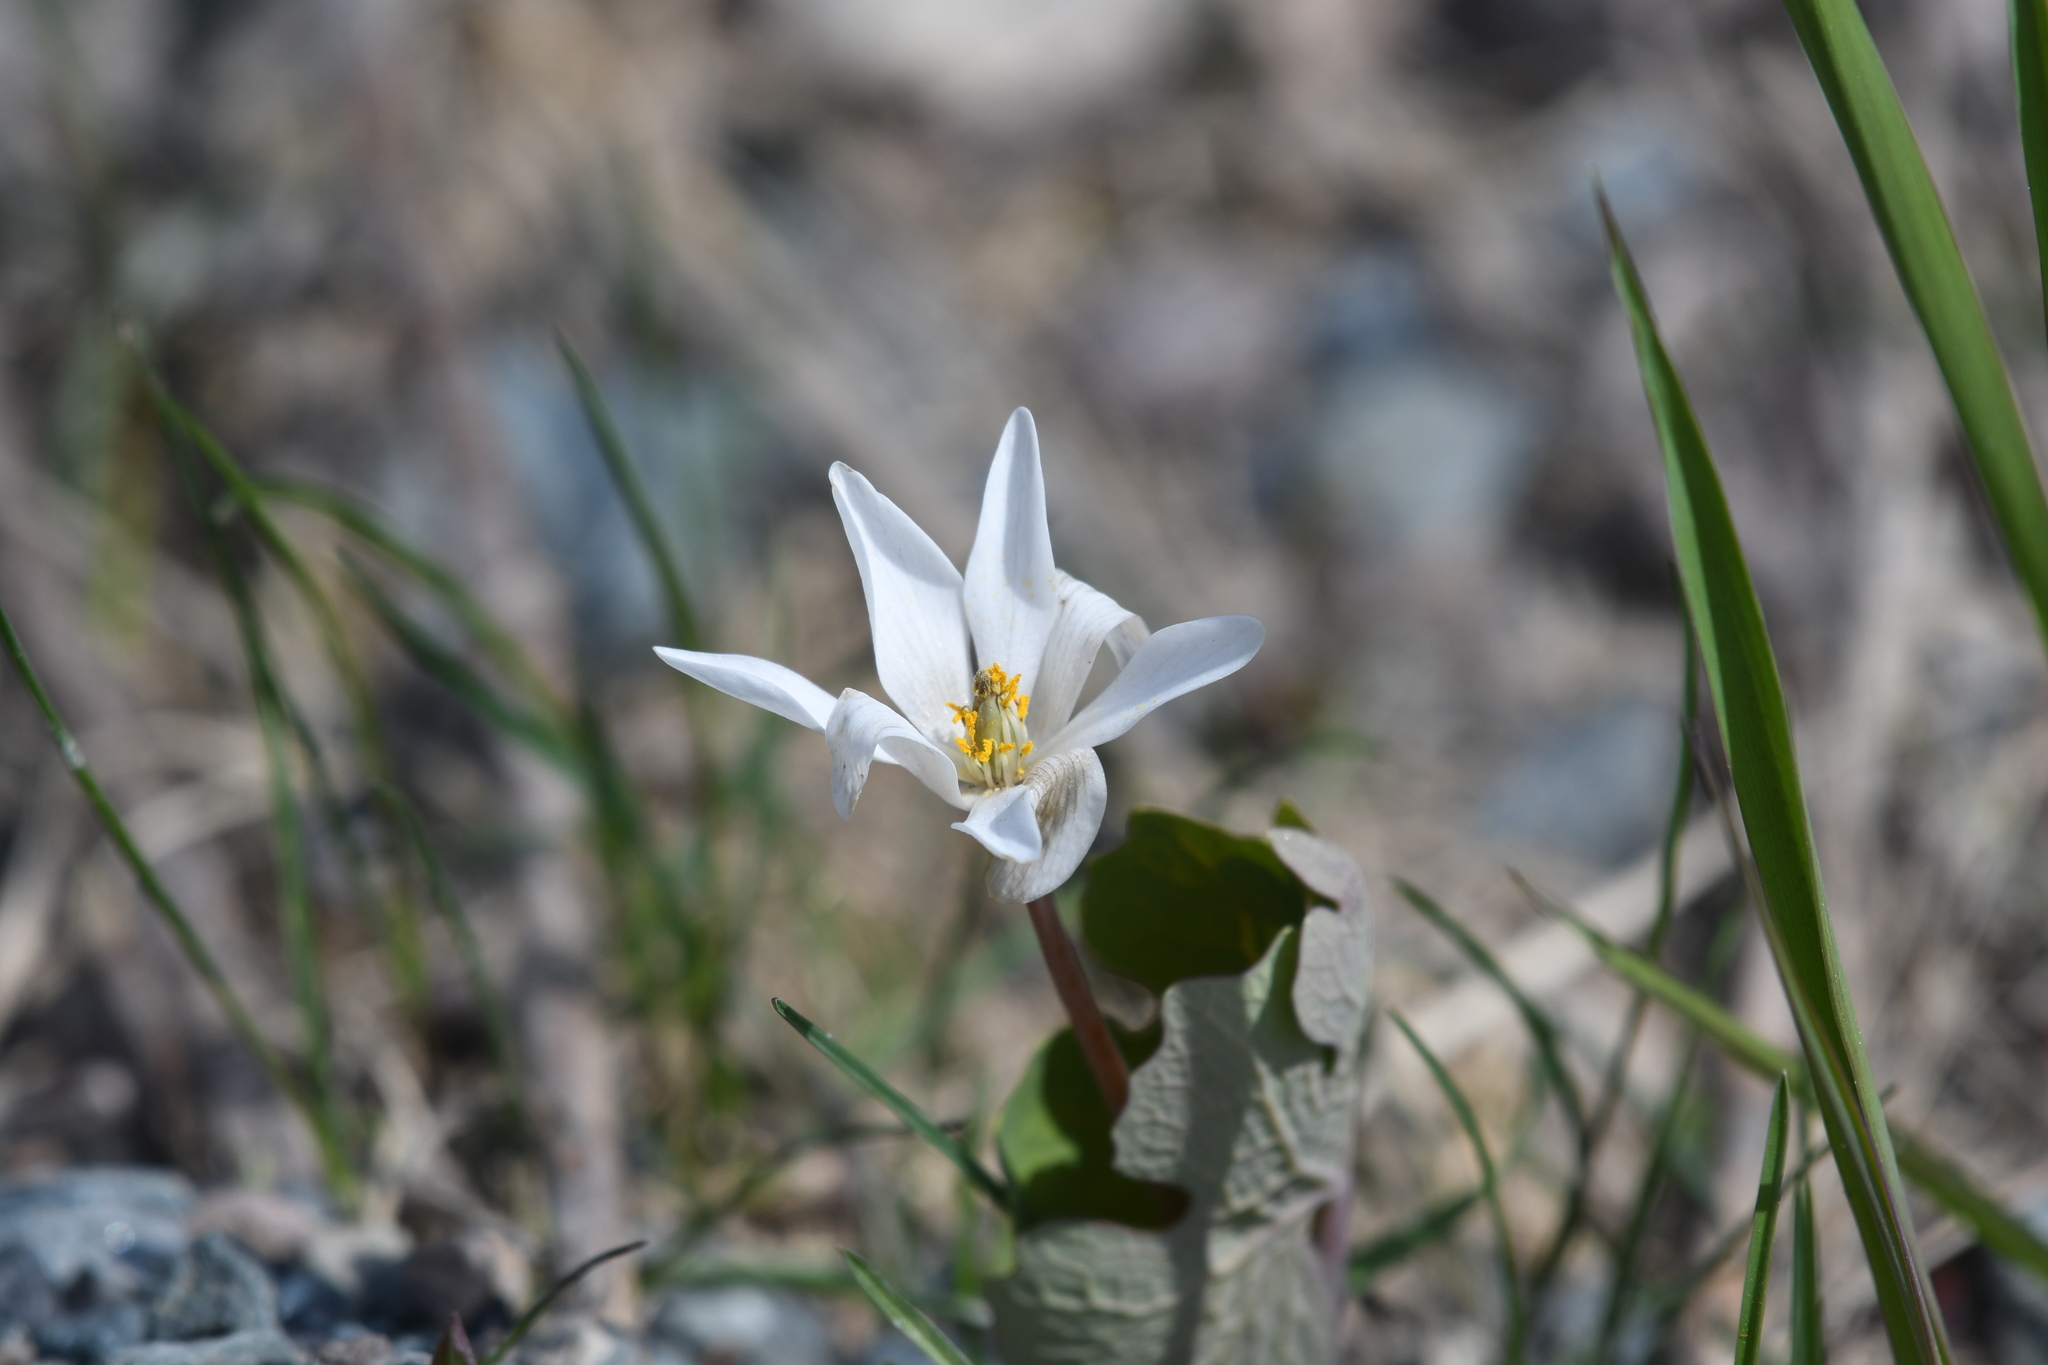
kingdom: Plantae
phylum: Tracheophyta
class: Magnoliopsida
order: Ranunculales
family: Papaveraceae
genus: Sanguinaria
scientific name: Sanguinaria canadensis
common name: Bloodroot
